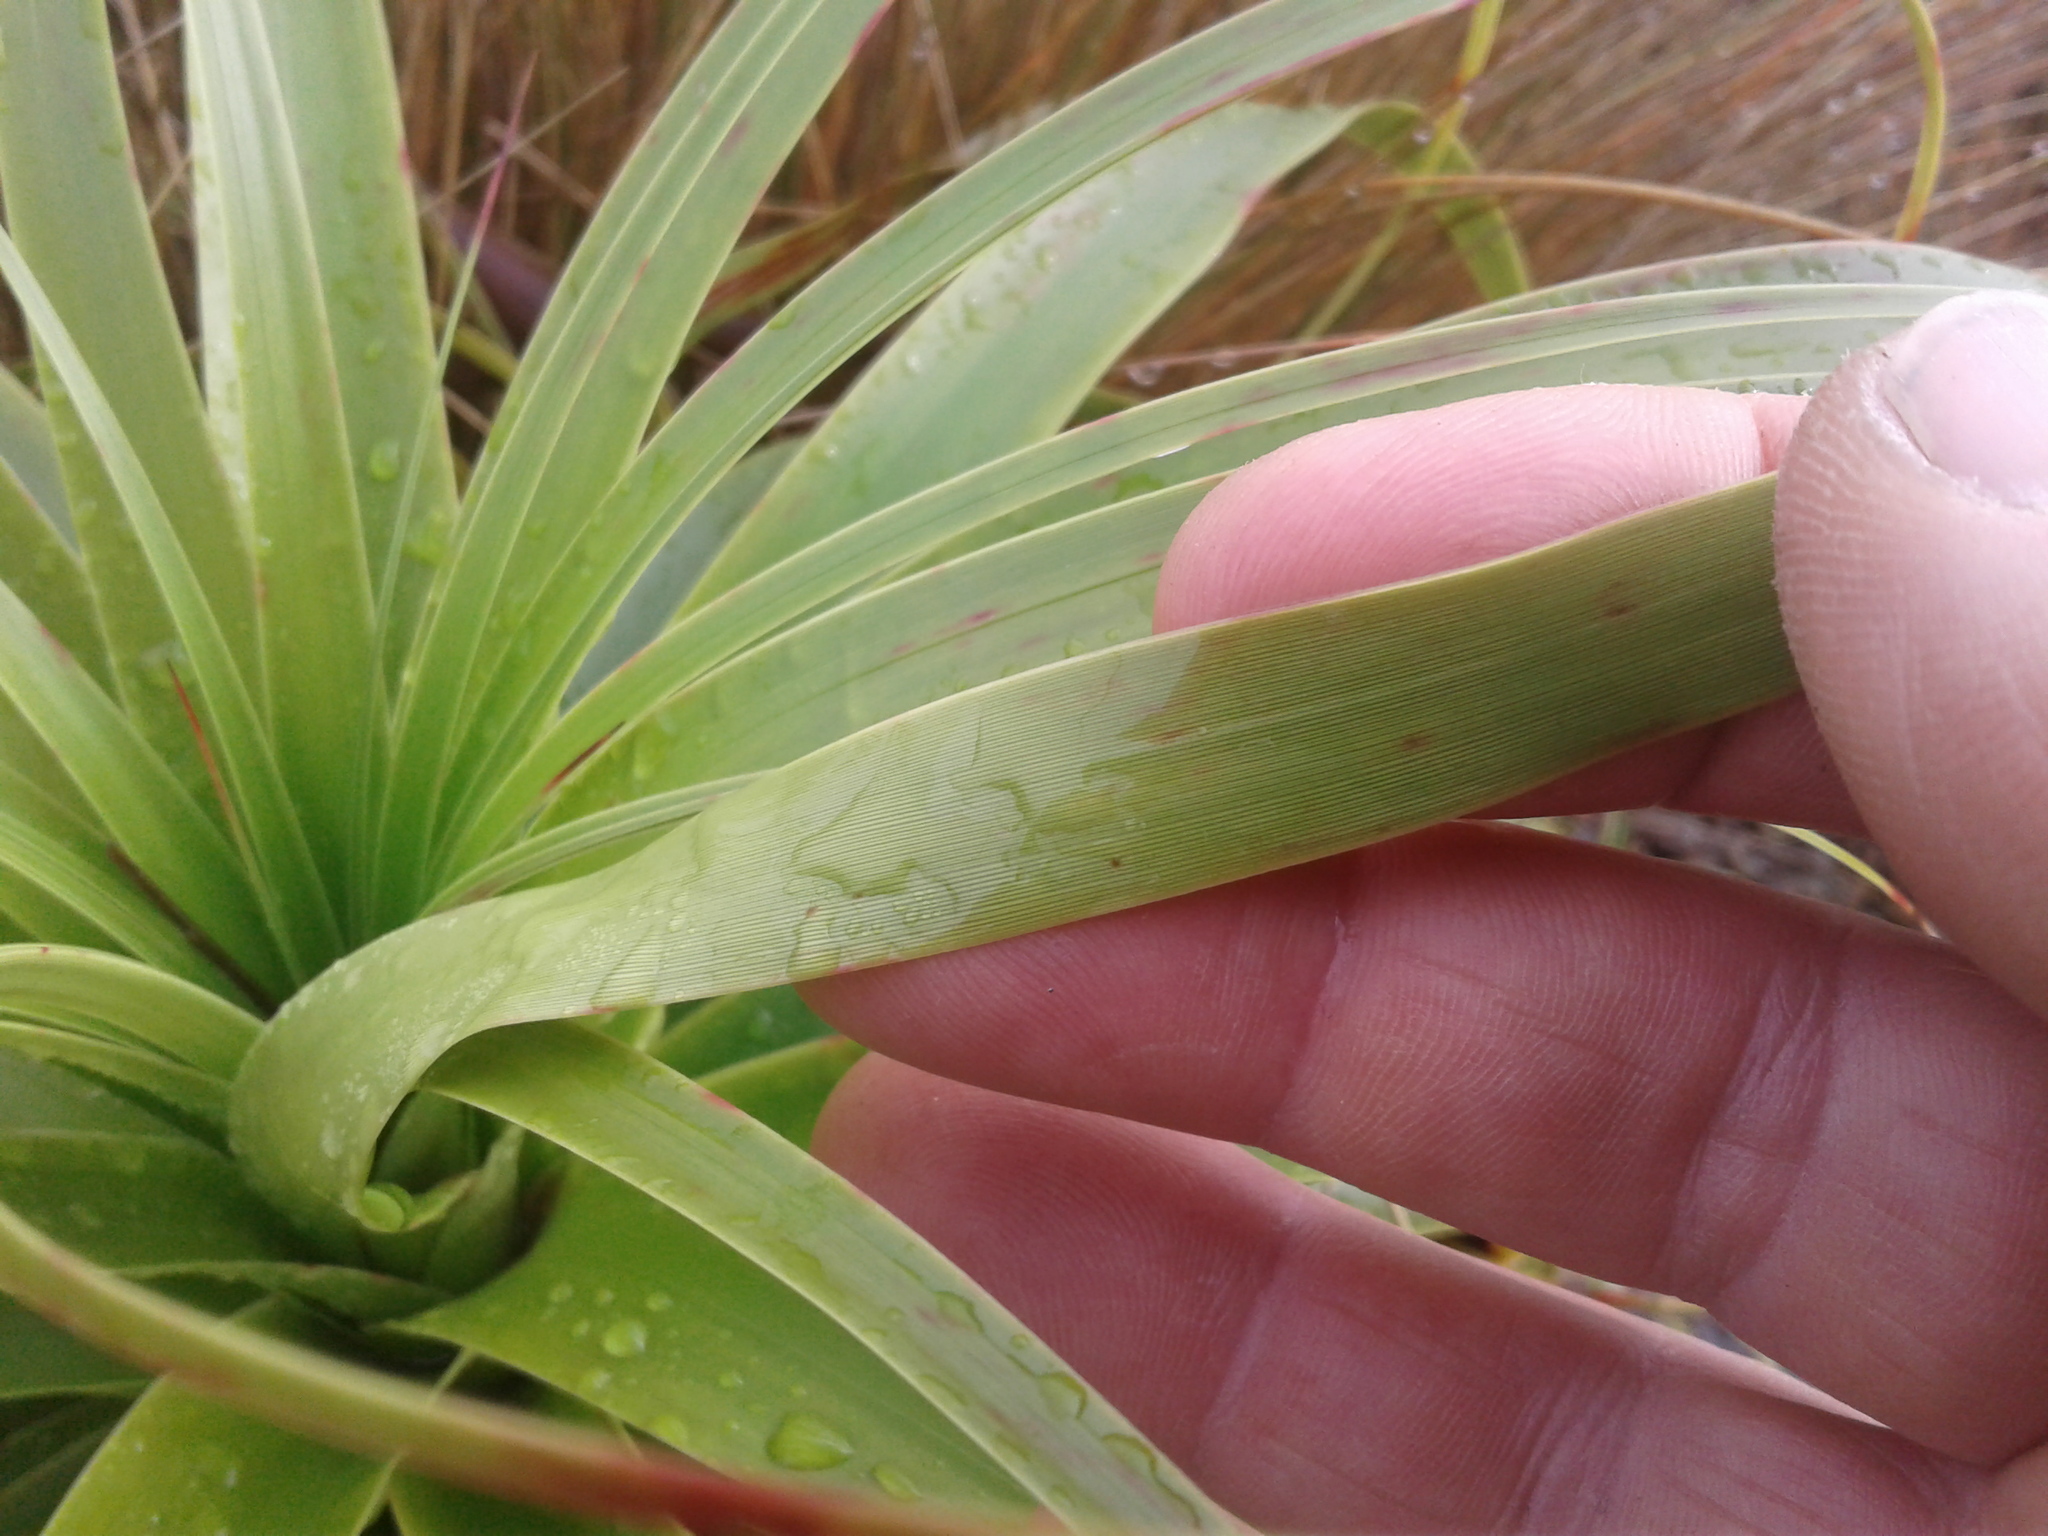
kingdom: Plantae
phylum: Tracheophyta
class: Magnoliopsida
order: Ericales
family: Ericaceae
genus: Dracophyllum
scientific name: Dracophyllum traversii
